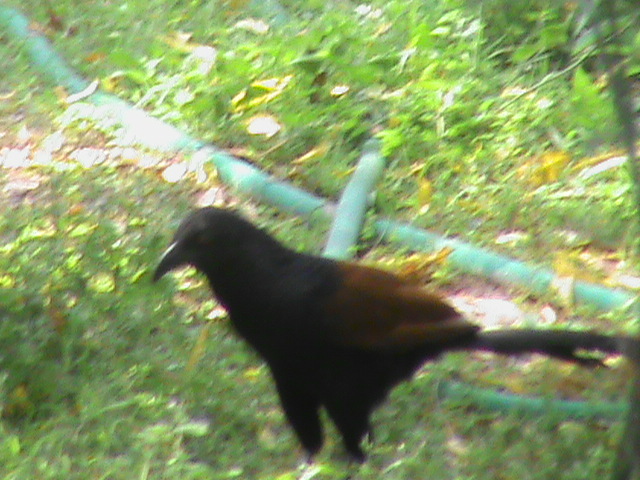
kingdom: Animalia
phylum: Chordata
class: Aves
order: Cuculiformes
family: Cuculidae
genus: Centropus
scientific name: Centropus sinensis
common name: Greater coucal
